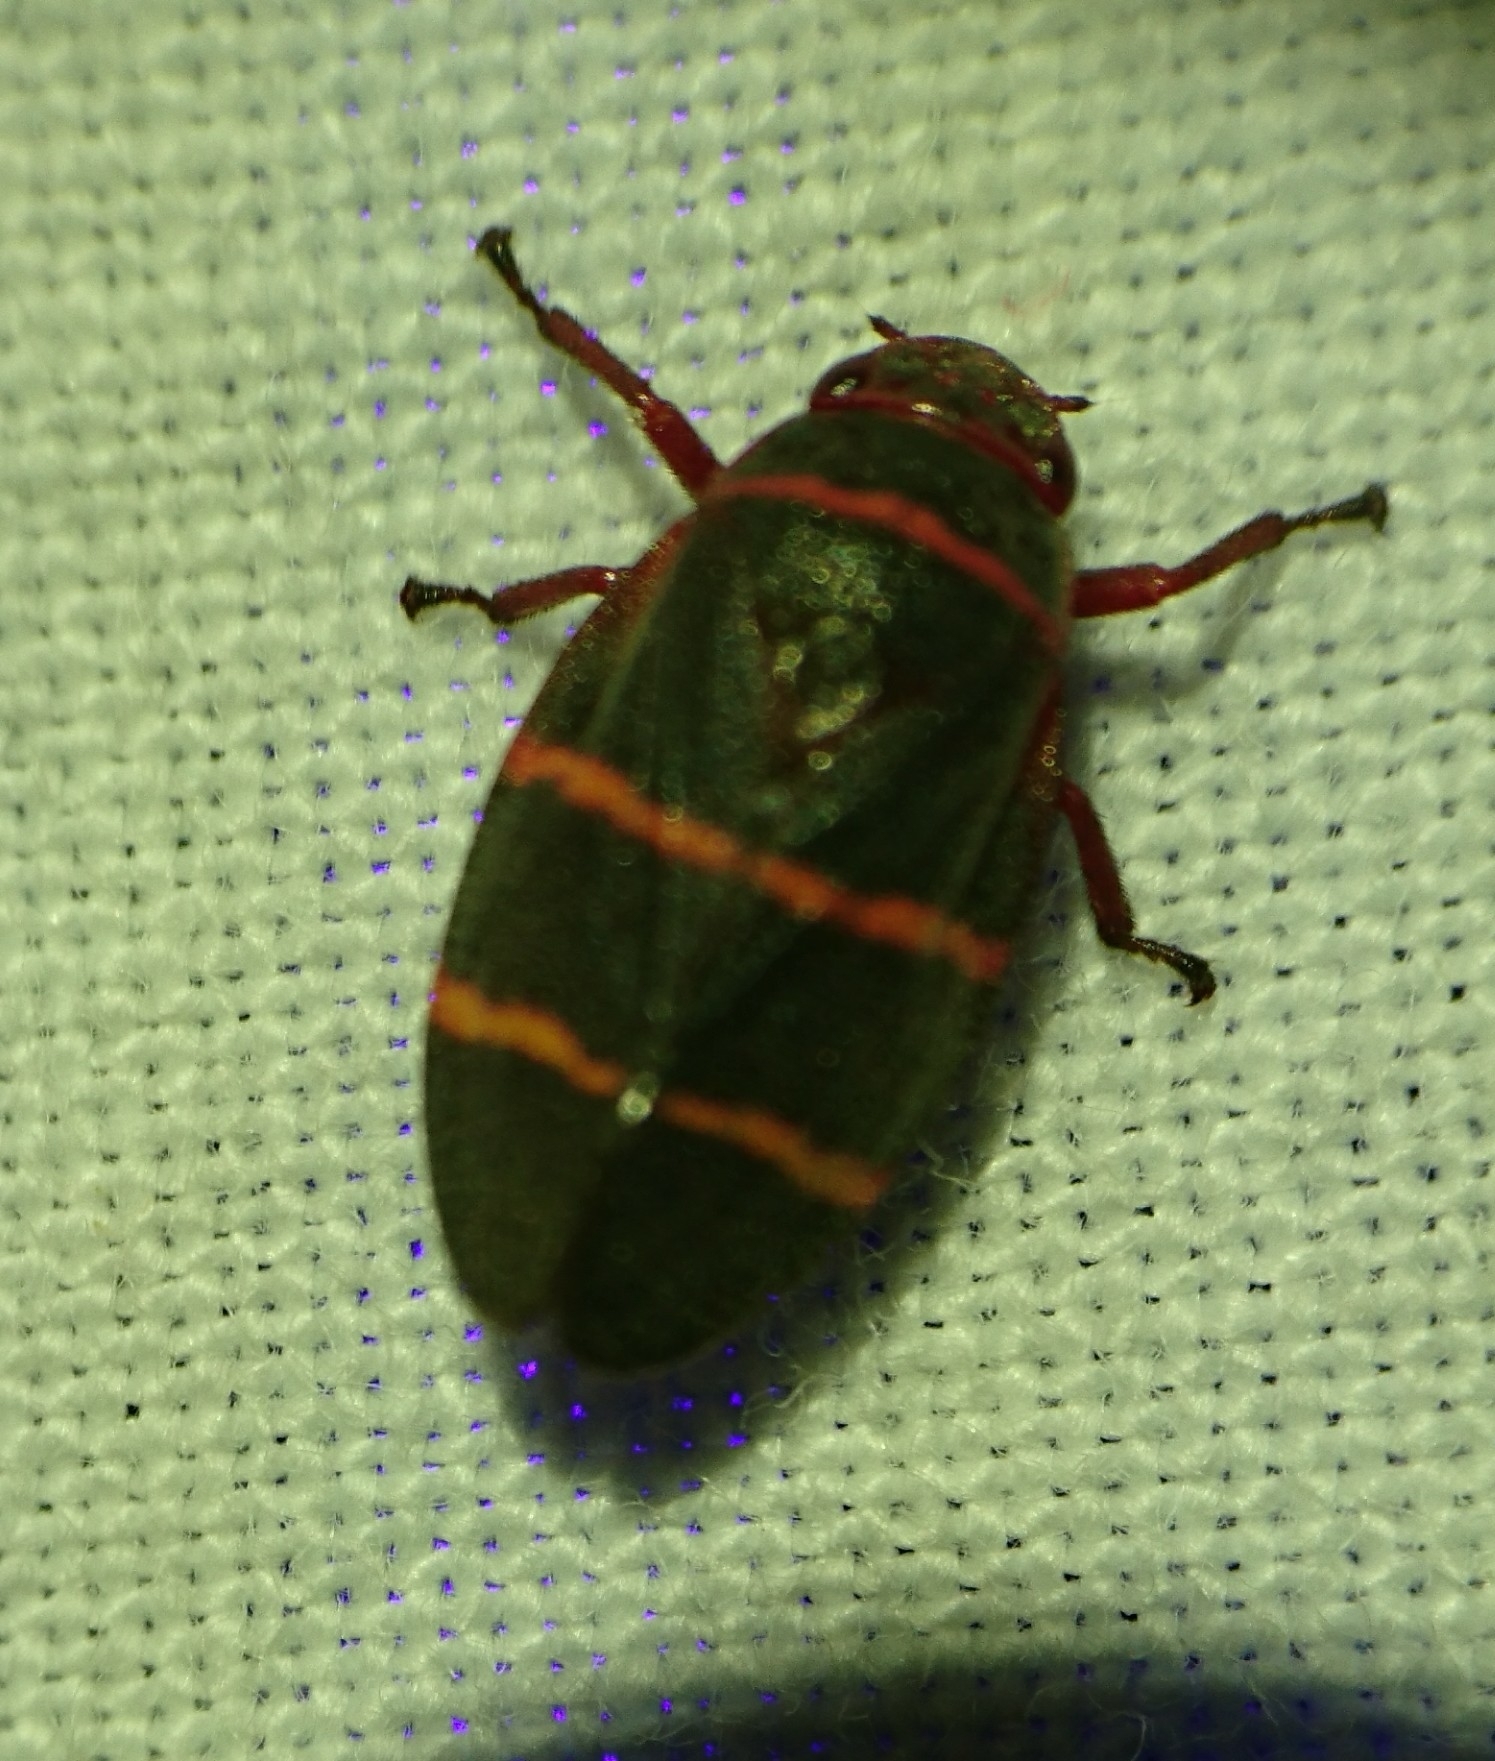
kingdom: Animalia
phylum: Arthropoda
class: Insecta
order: Hemiptera
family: Cercopidae
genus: Prosapia
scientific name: Prosapia bicincta
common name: Twolined spittlebug
